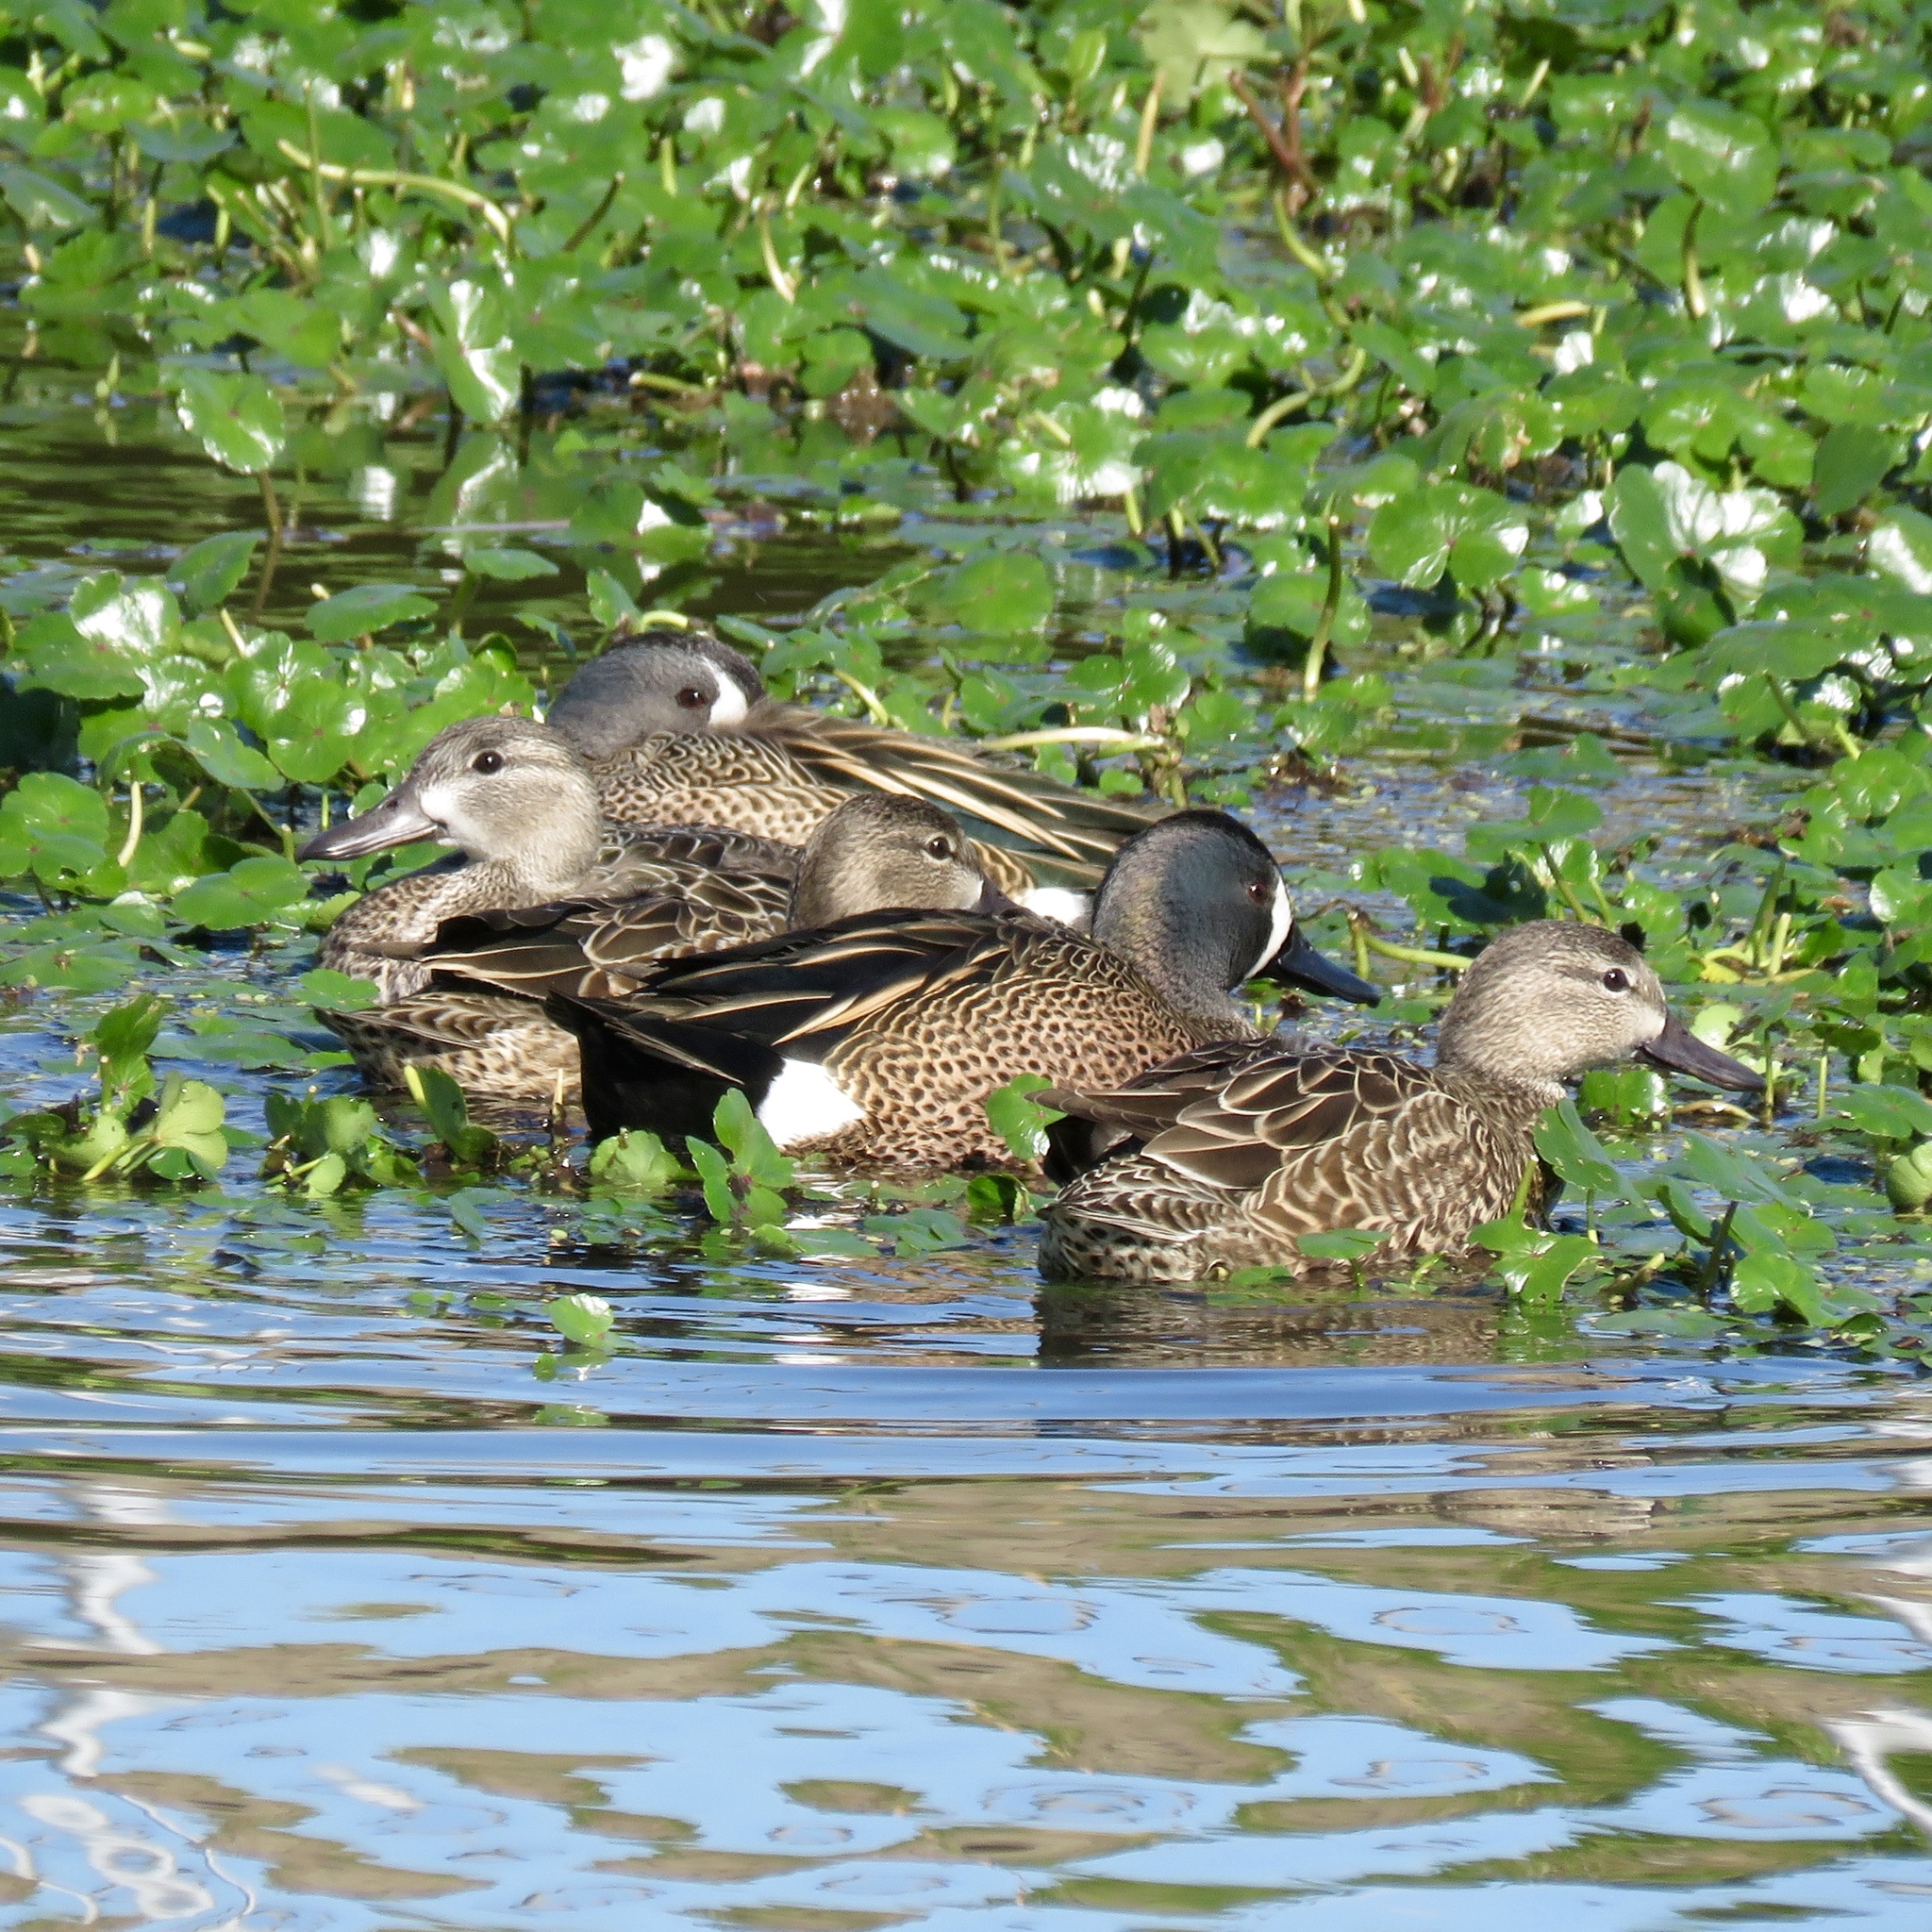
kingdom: Animalia
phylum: Chordata
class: Aves
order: Anseriformes
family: Anatidae
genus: Spatula
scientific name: Spatula discors
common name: Blue-winged teal
